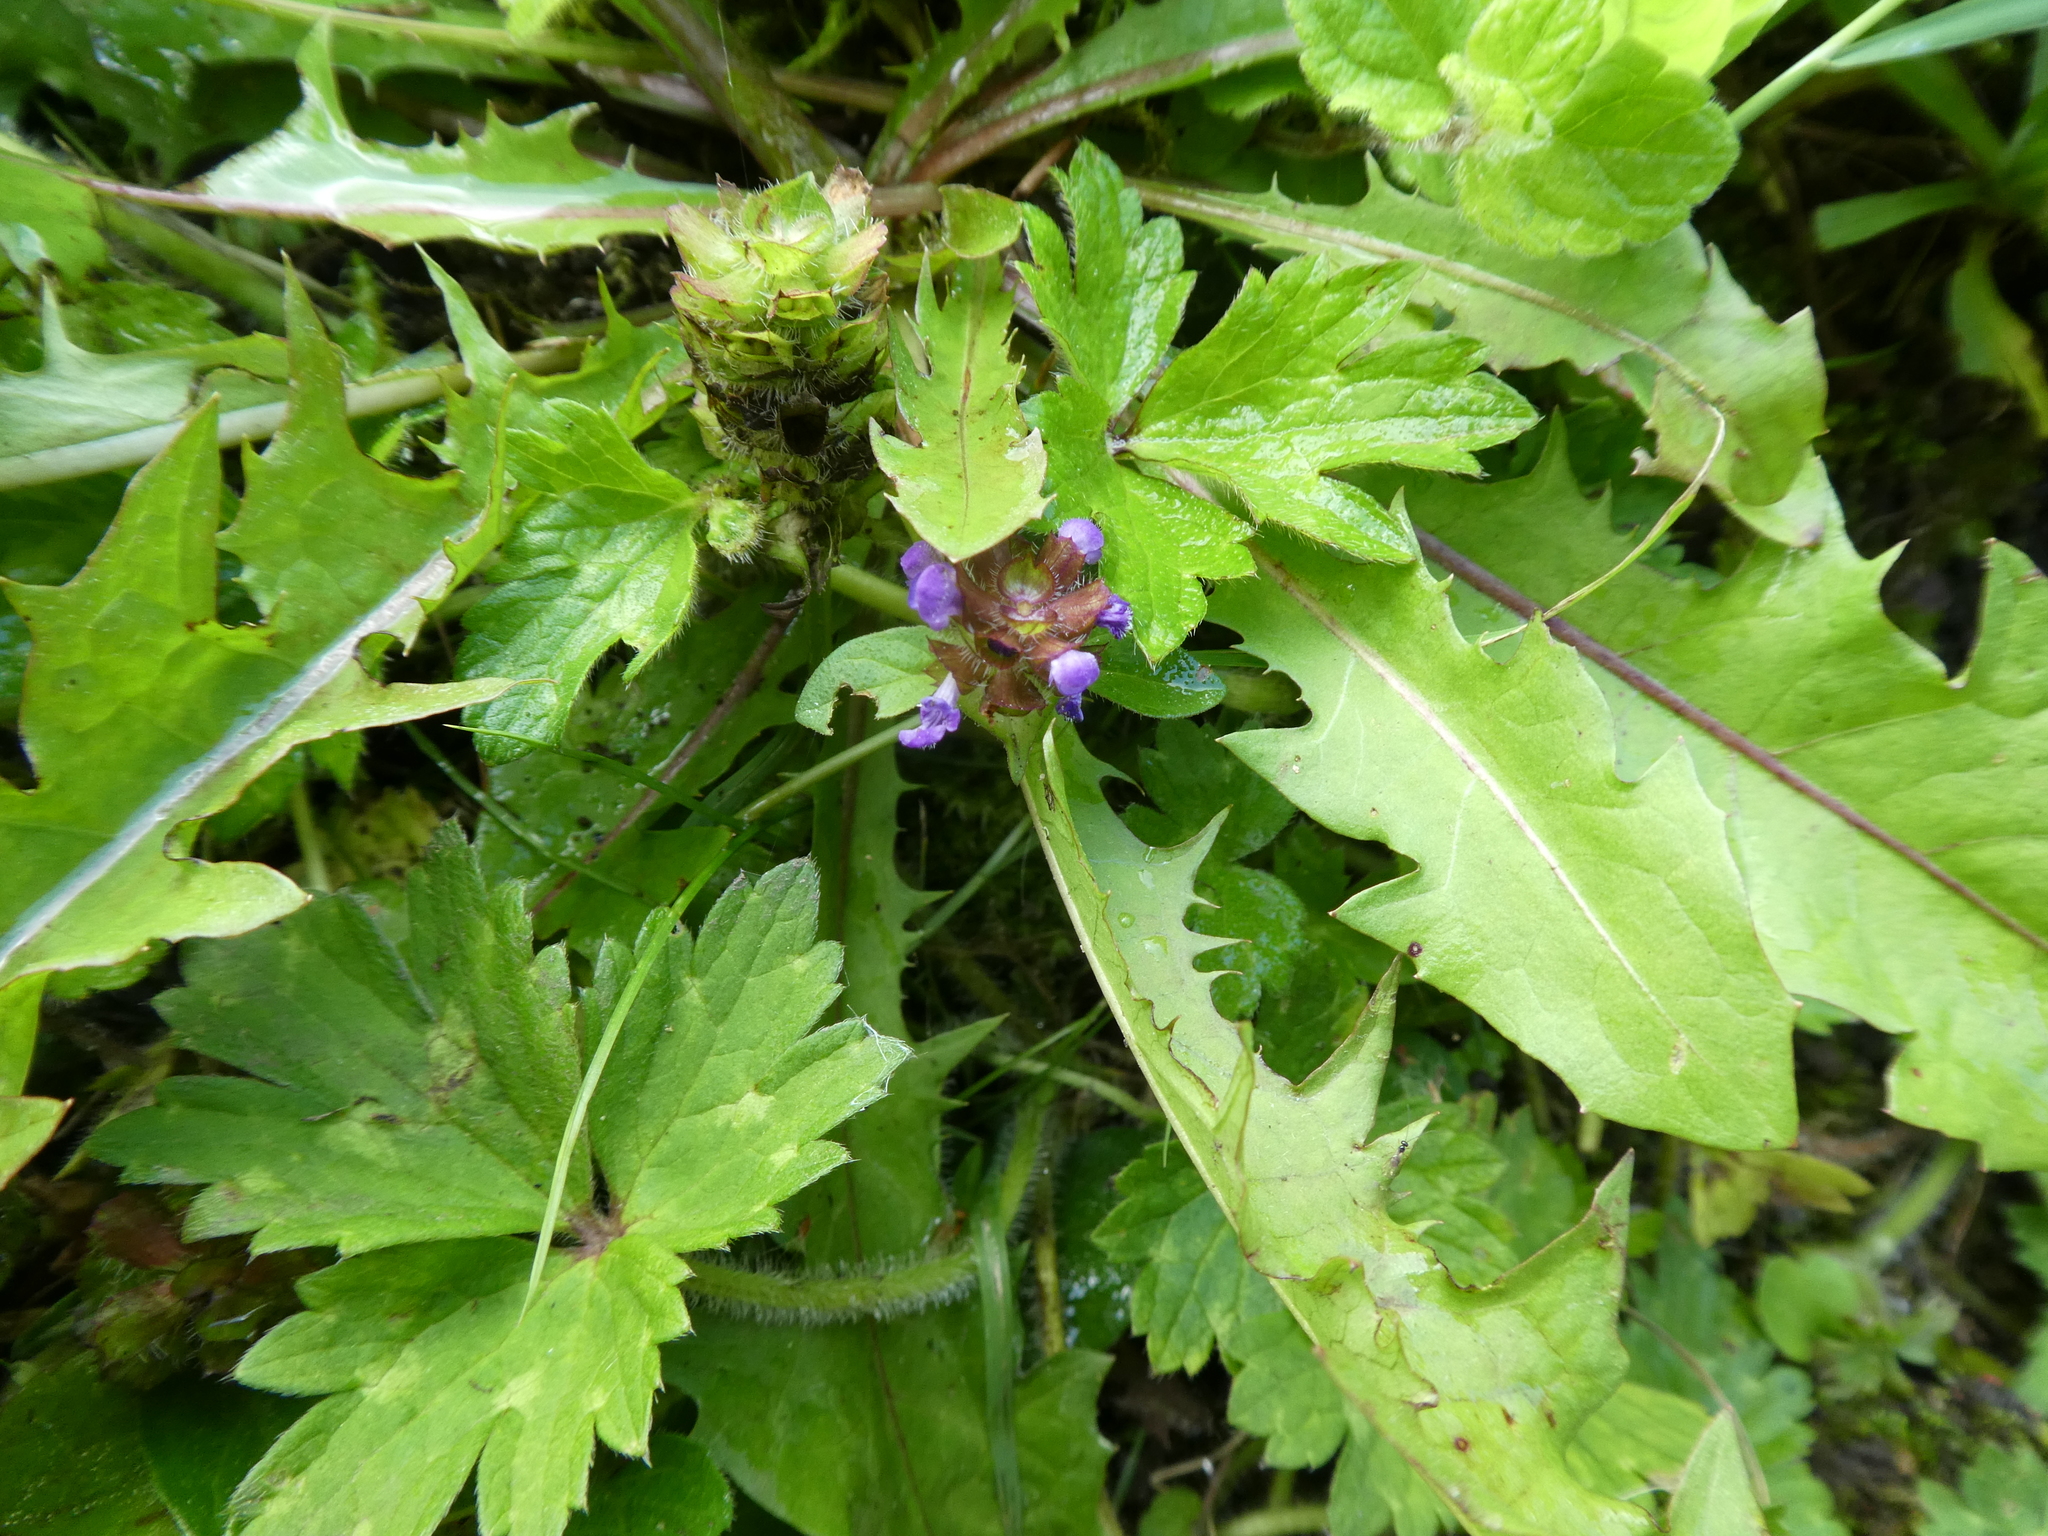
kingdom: Plantae
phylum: Tracheophyta
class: Magnoliopsida
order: Lamiales
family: Lamiaceae
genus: Prunella
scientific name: Prunella vulgaris
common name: Heal-all
